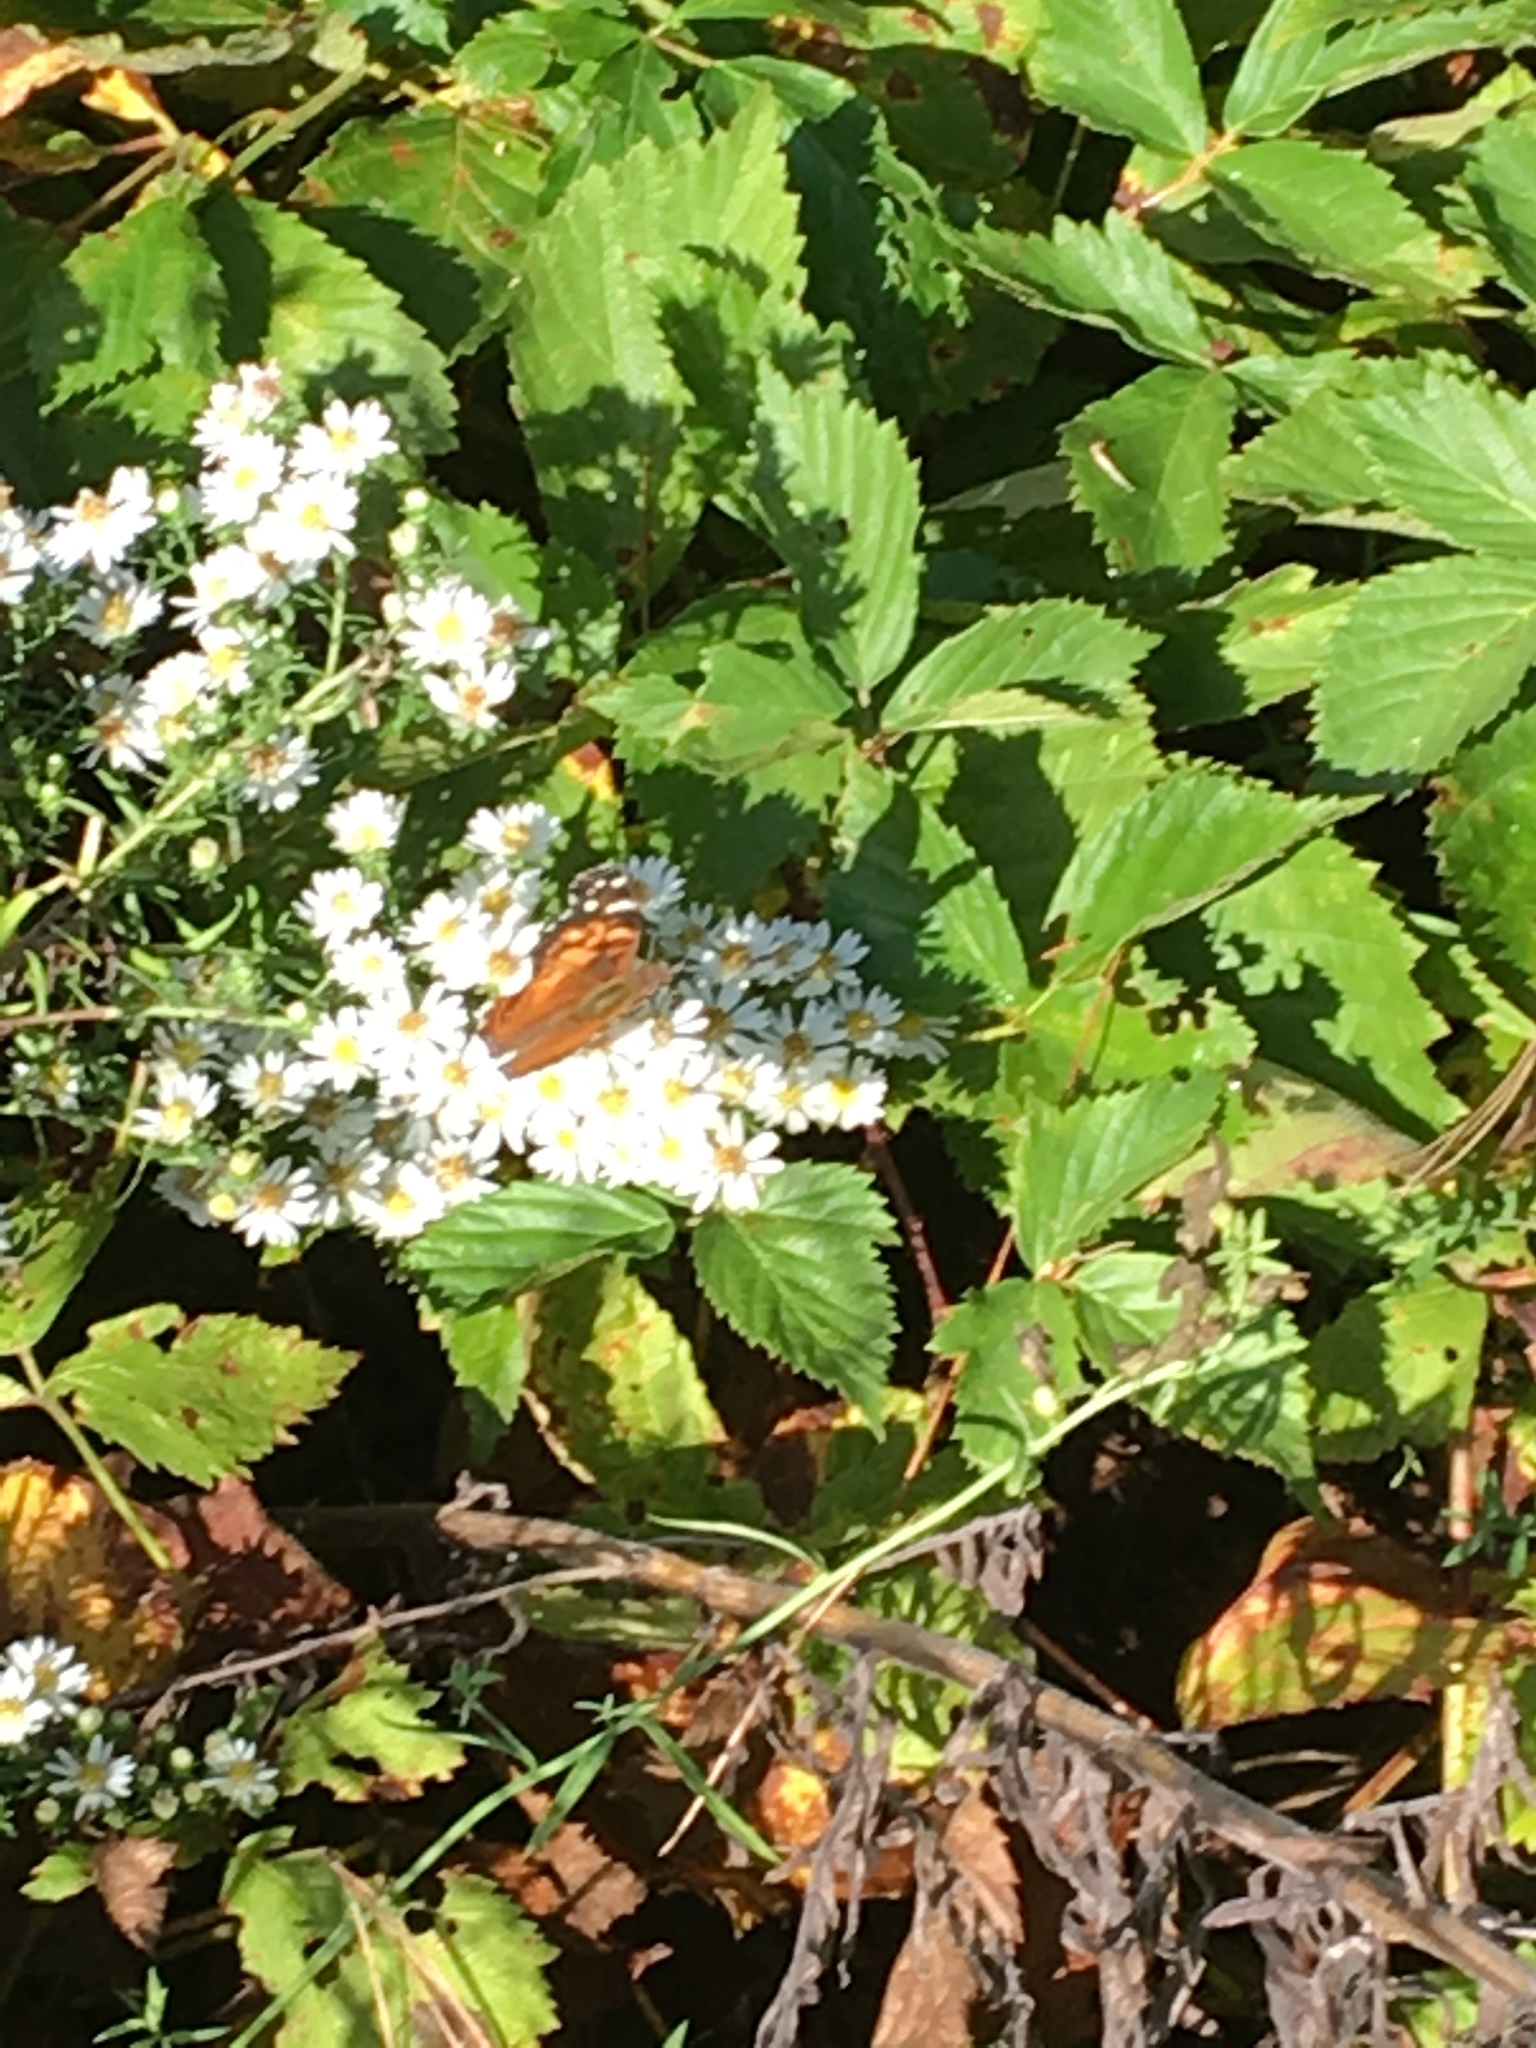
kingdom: Animalia
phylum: Arthropoda
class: Insecta
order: Lepidoptera
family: Nymphalidae
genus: Vanessa
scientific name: Vanessa virginiensis
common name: American lady
